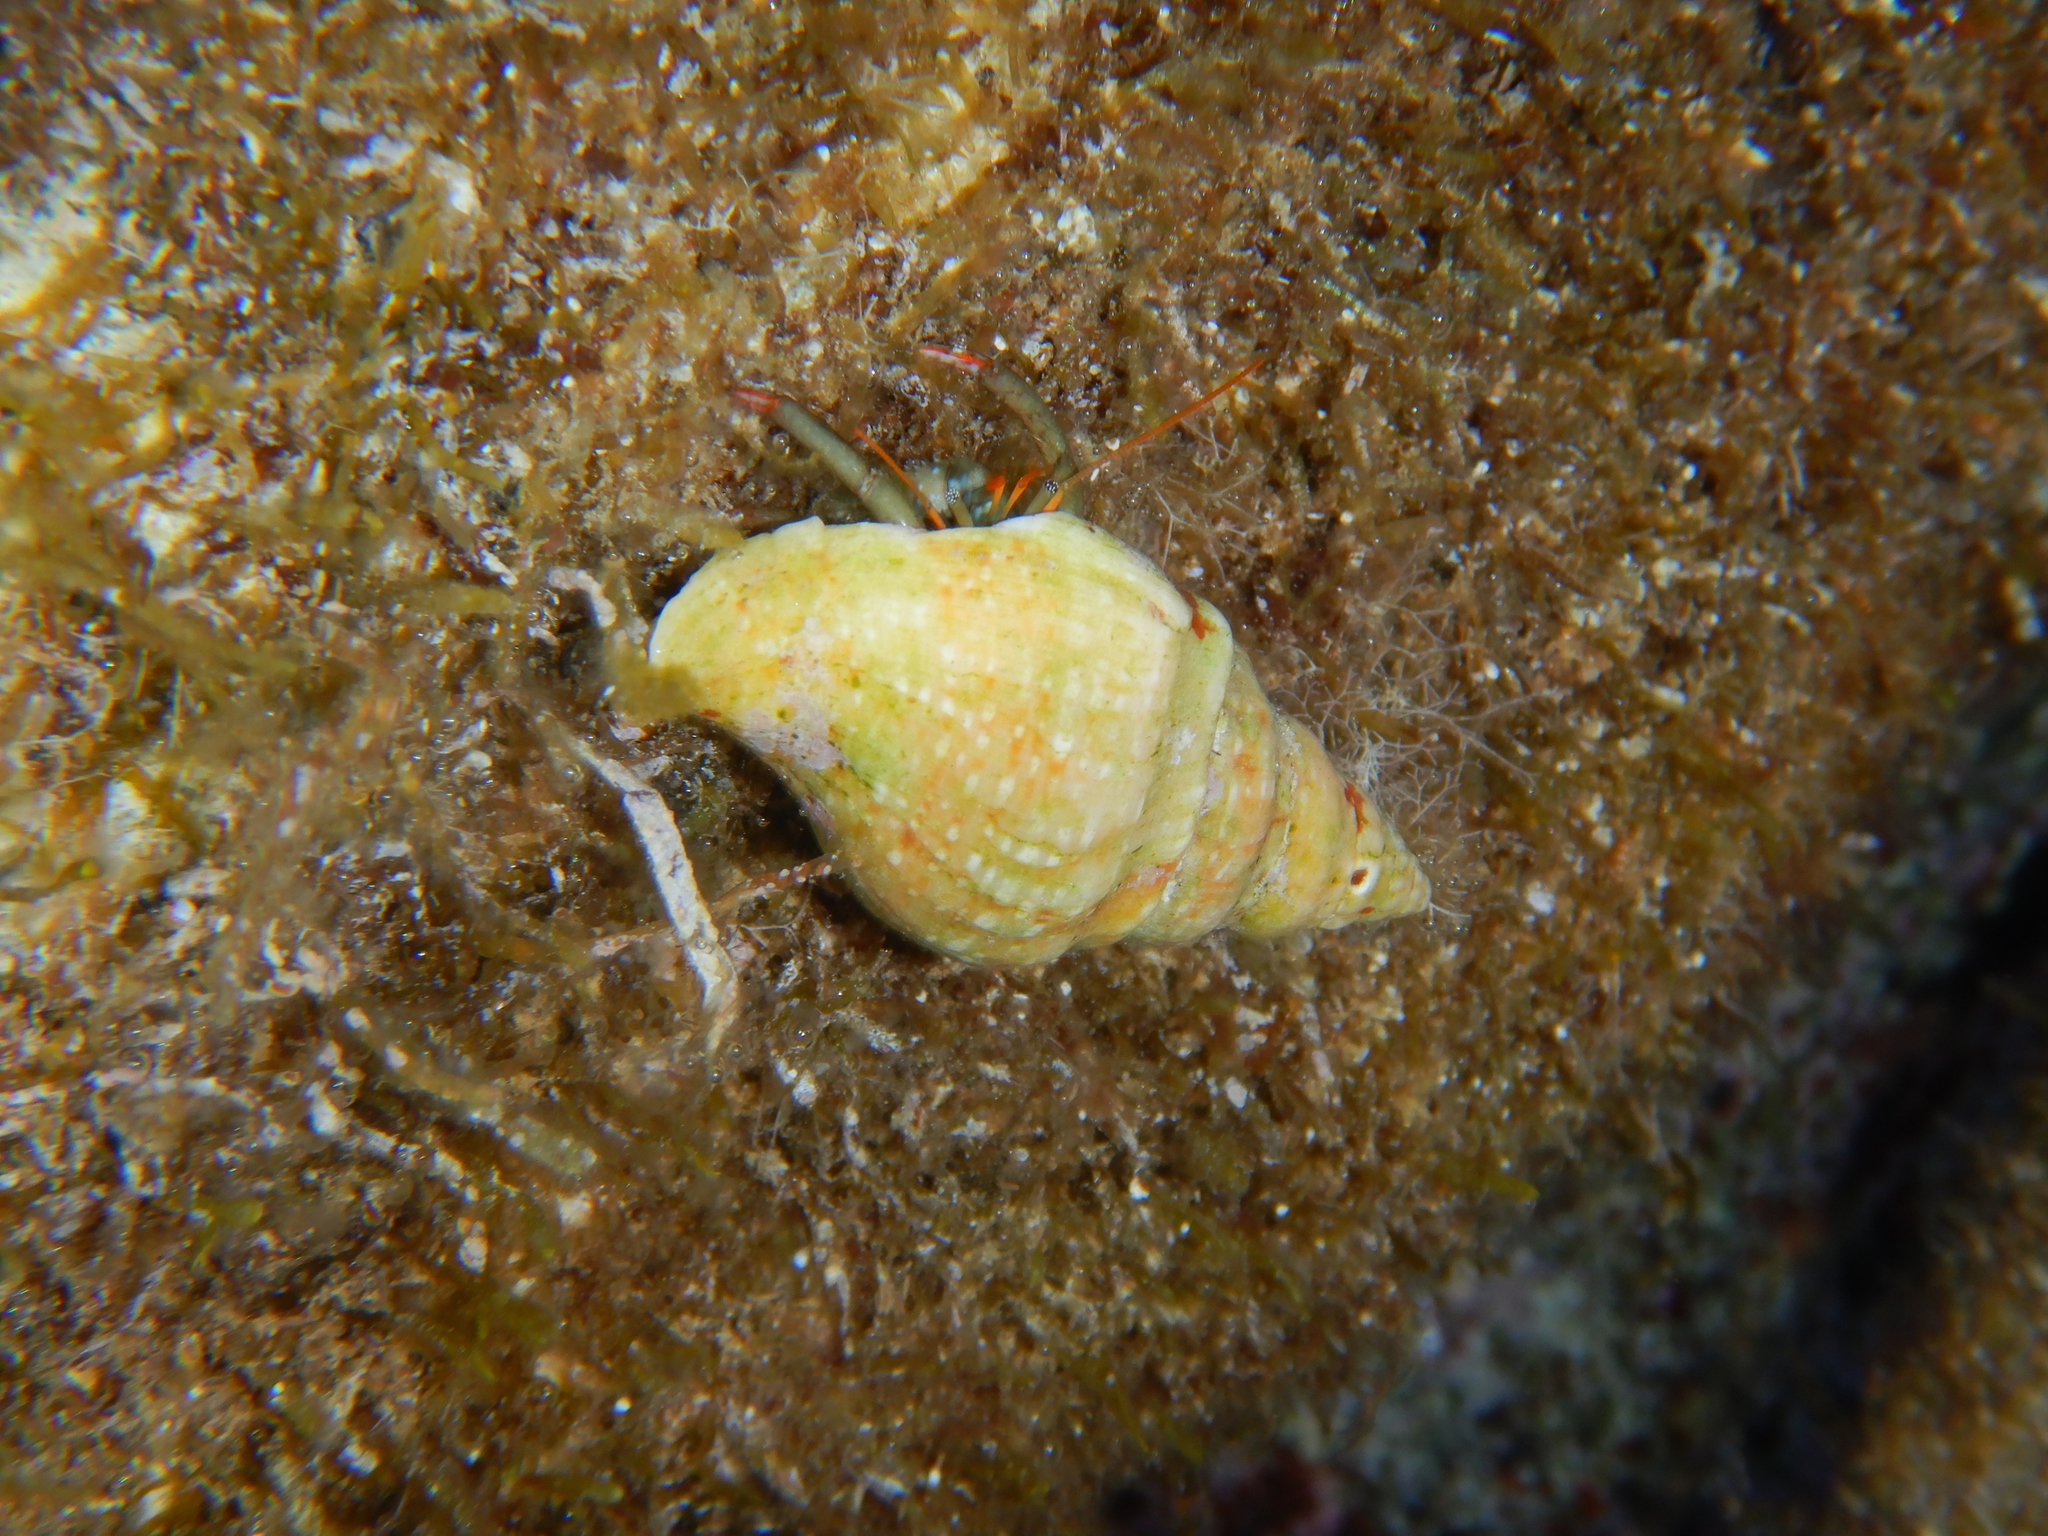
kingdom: Animalia
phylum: Mollusca
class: Gastropoda
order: Neogastropoda
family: Tudiclidae
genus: Euthria
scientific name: Euthria cornea
